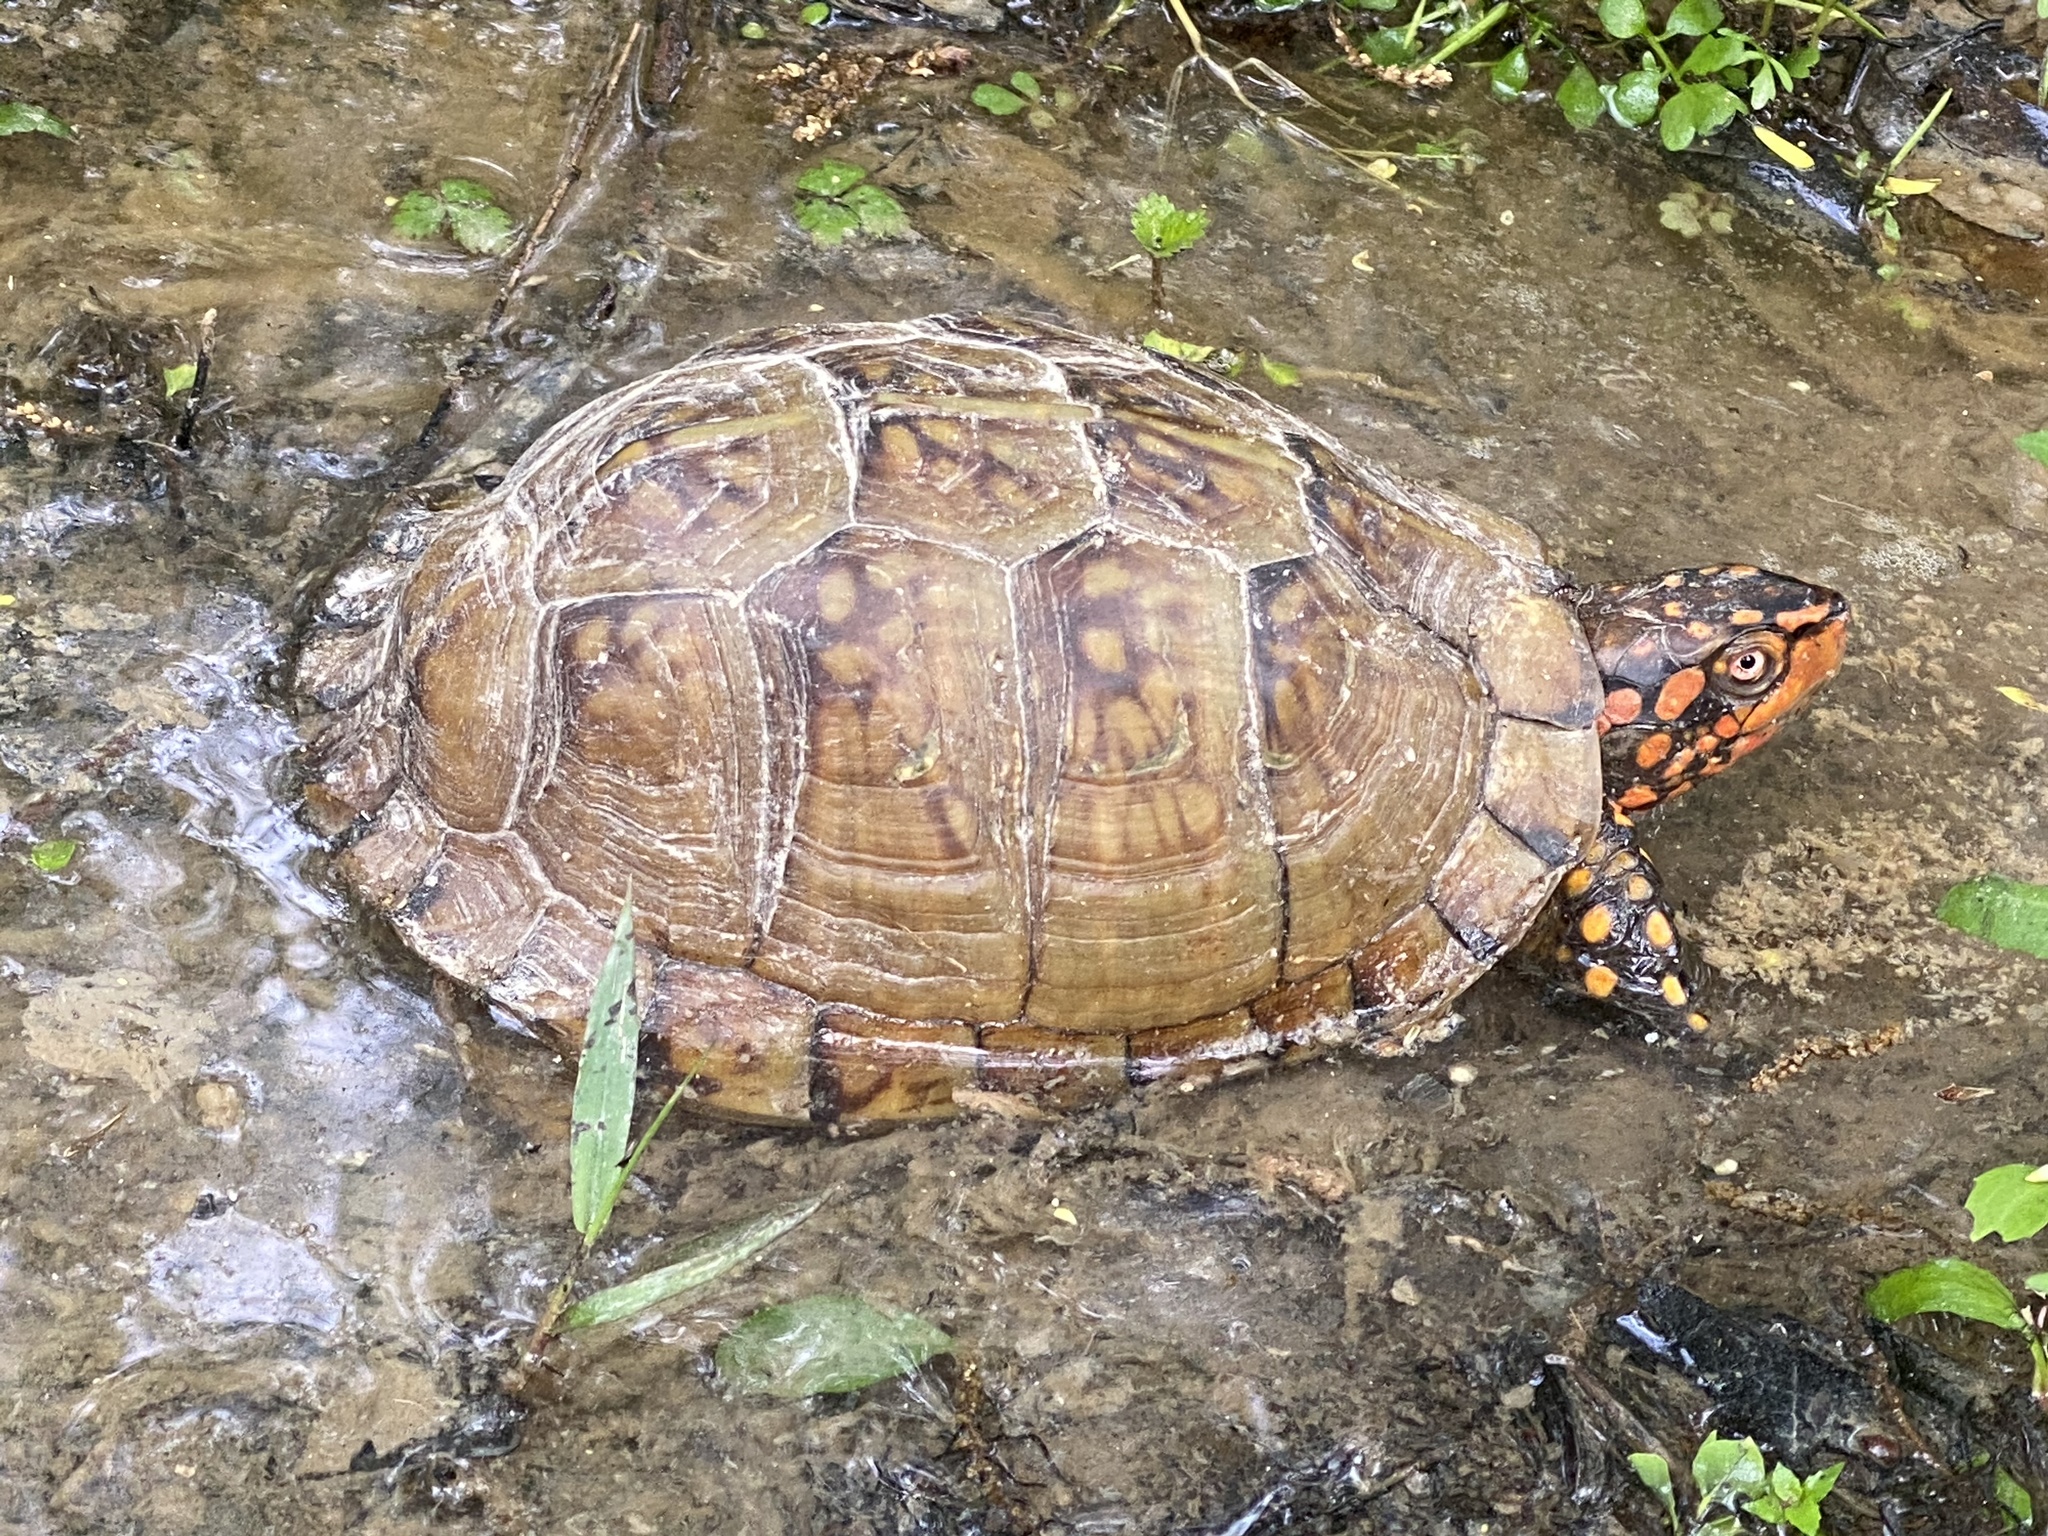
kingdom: Animalia
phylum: Chordata
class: Testudines
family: Emydidae
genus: Terrapene
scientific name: Terrapene carolina
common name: Common box turtle
